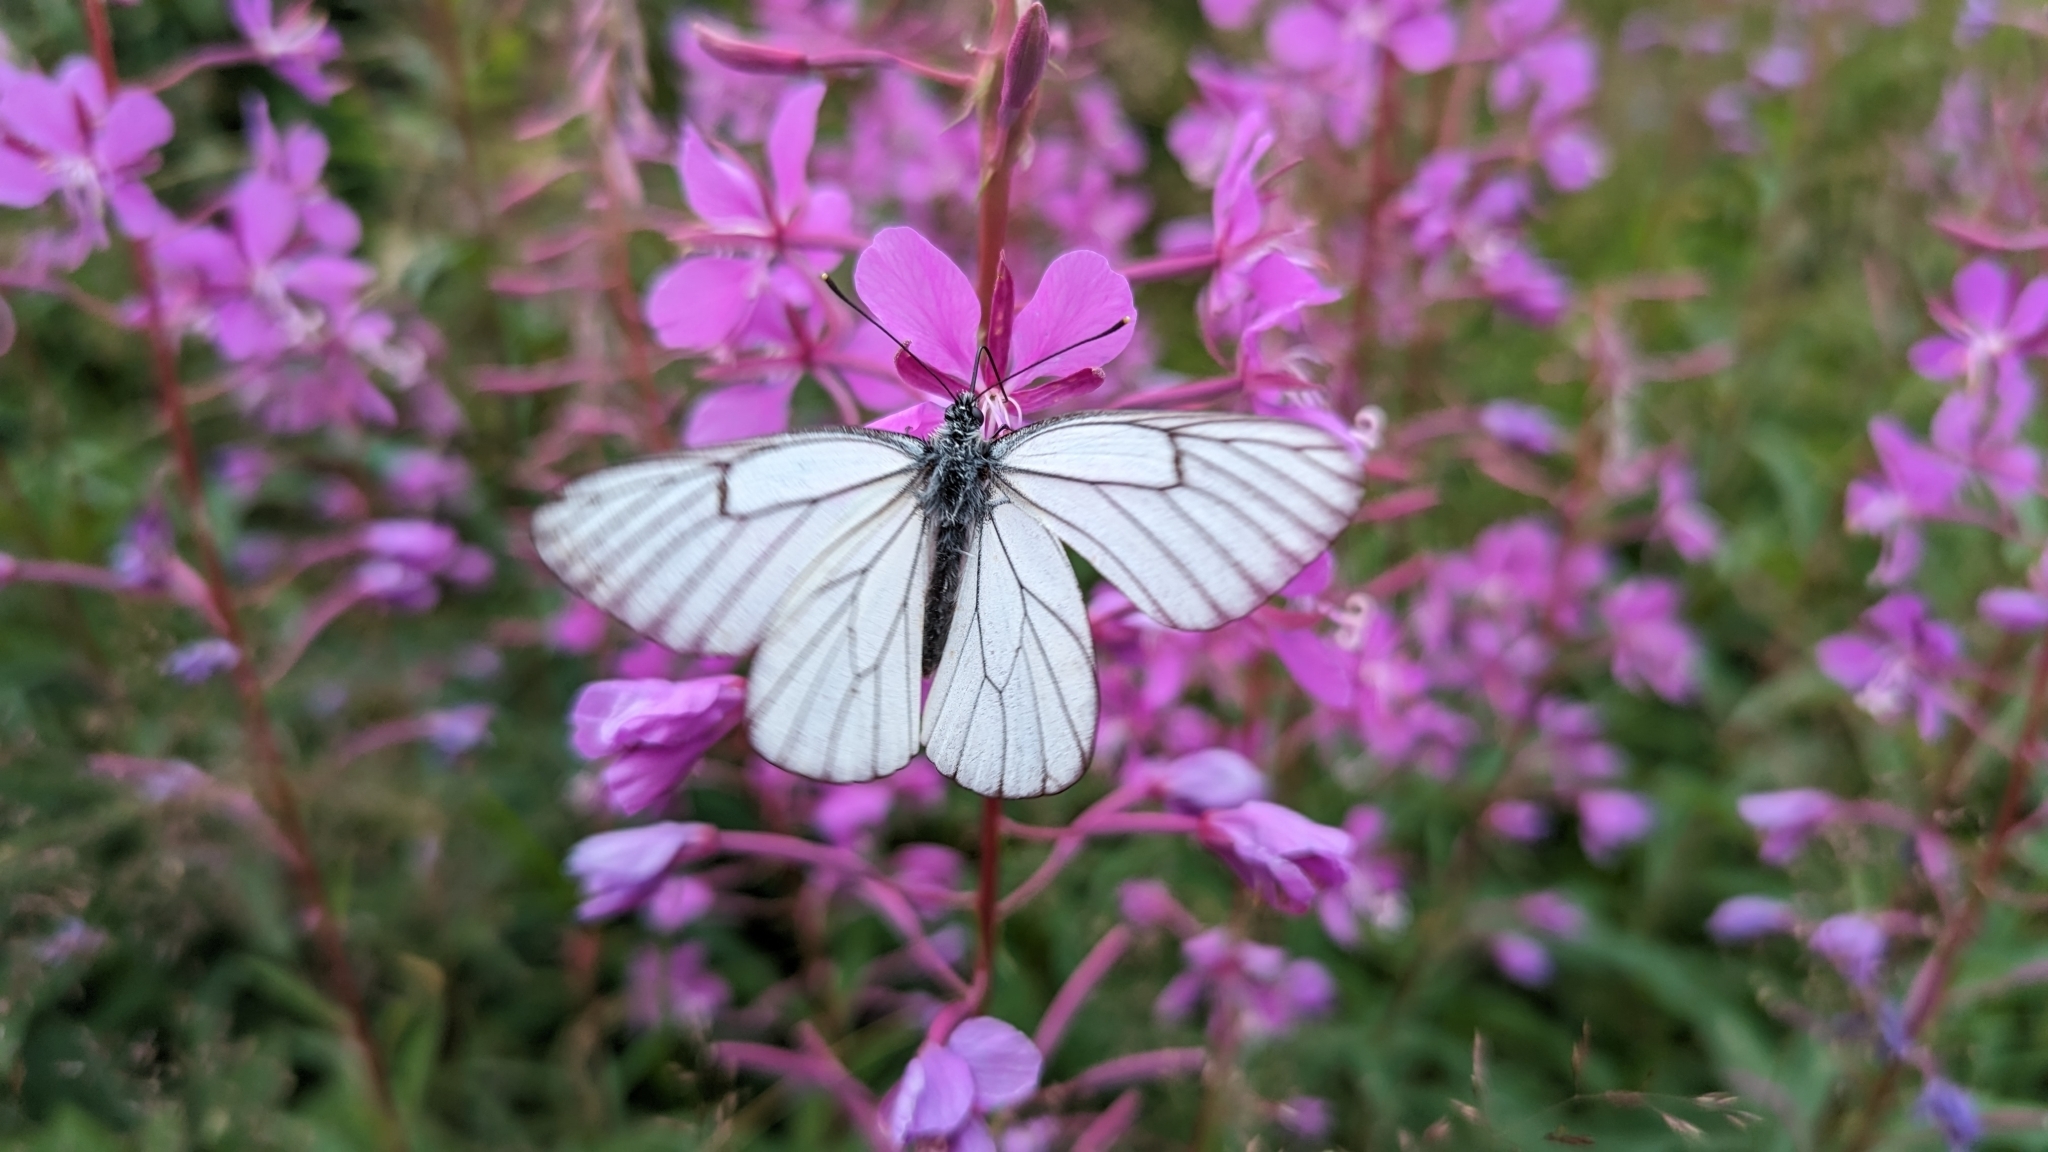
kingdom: Animalia
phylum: Arthropoda
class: Insecta
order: Lepidoptera
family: Pieridae
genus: Aporia
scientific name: Aporia crataegi
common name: Black-veined white
